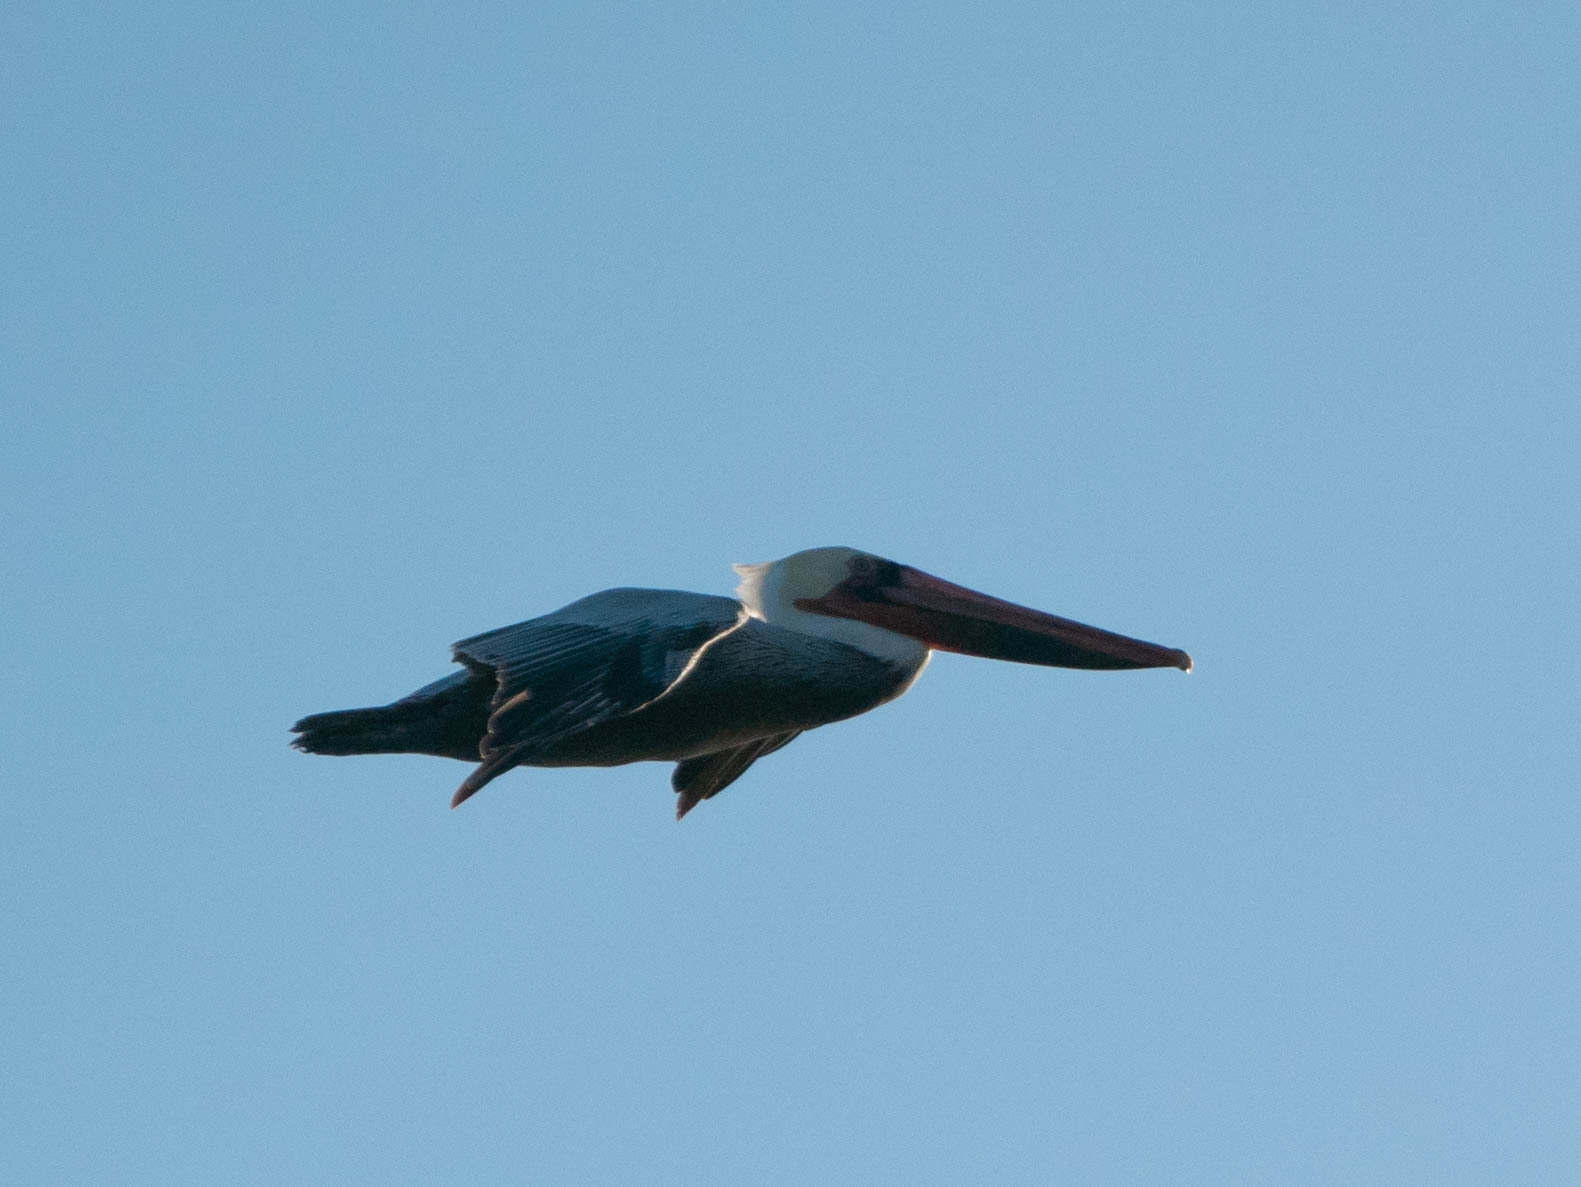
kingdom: Animalia
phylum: Chordata
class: Aves
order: Pelecaniformes
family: Pelecanidae
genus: Pelecanus
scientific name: Pelecanus occidentalis
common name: Brown pelican
